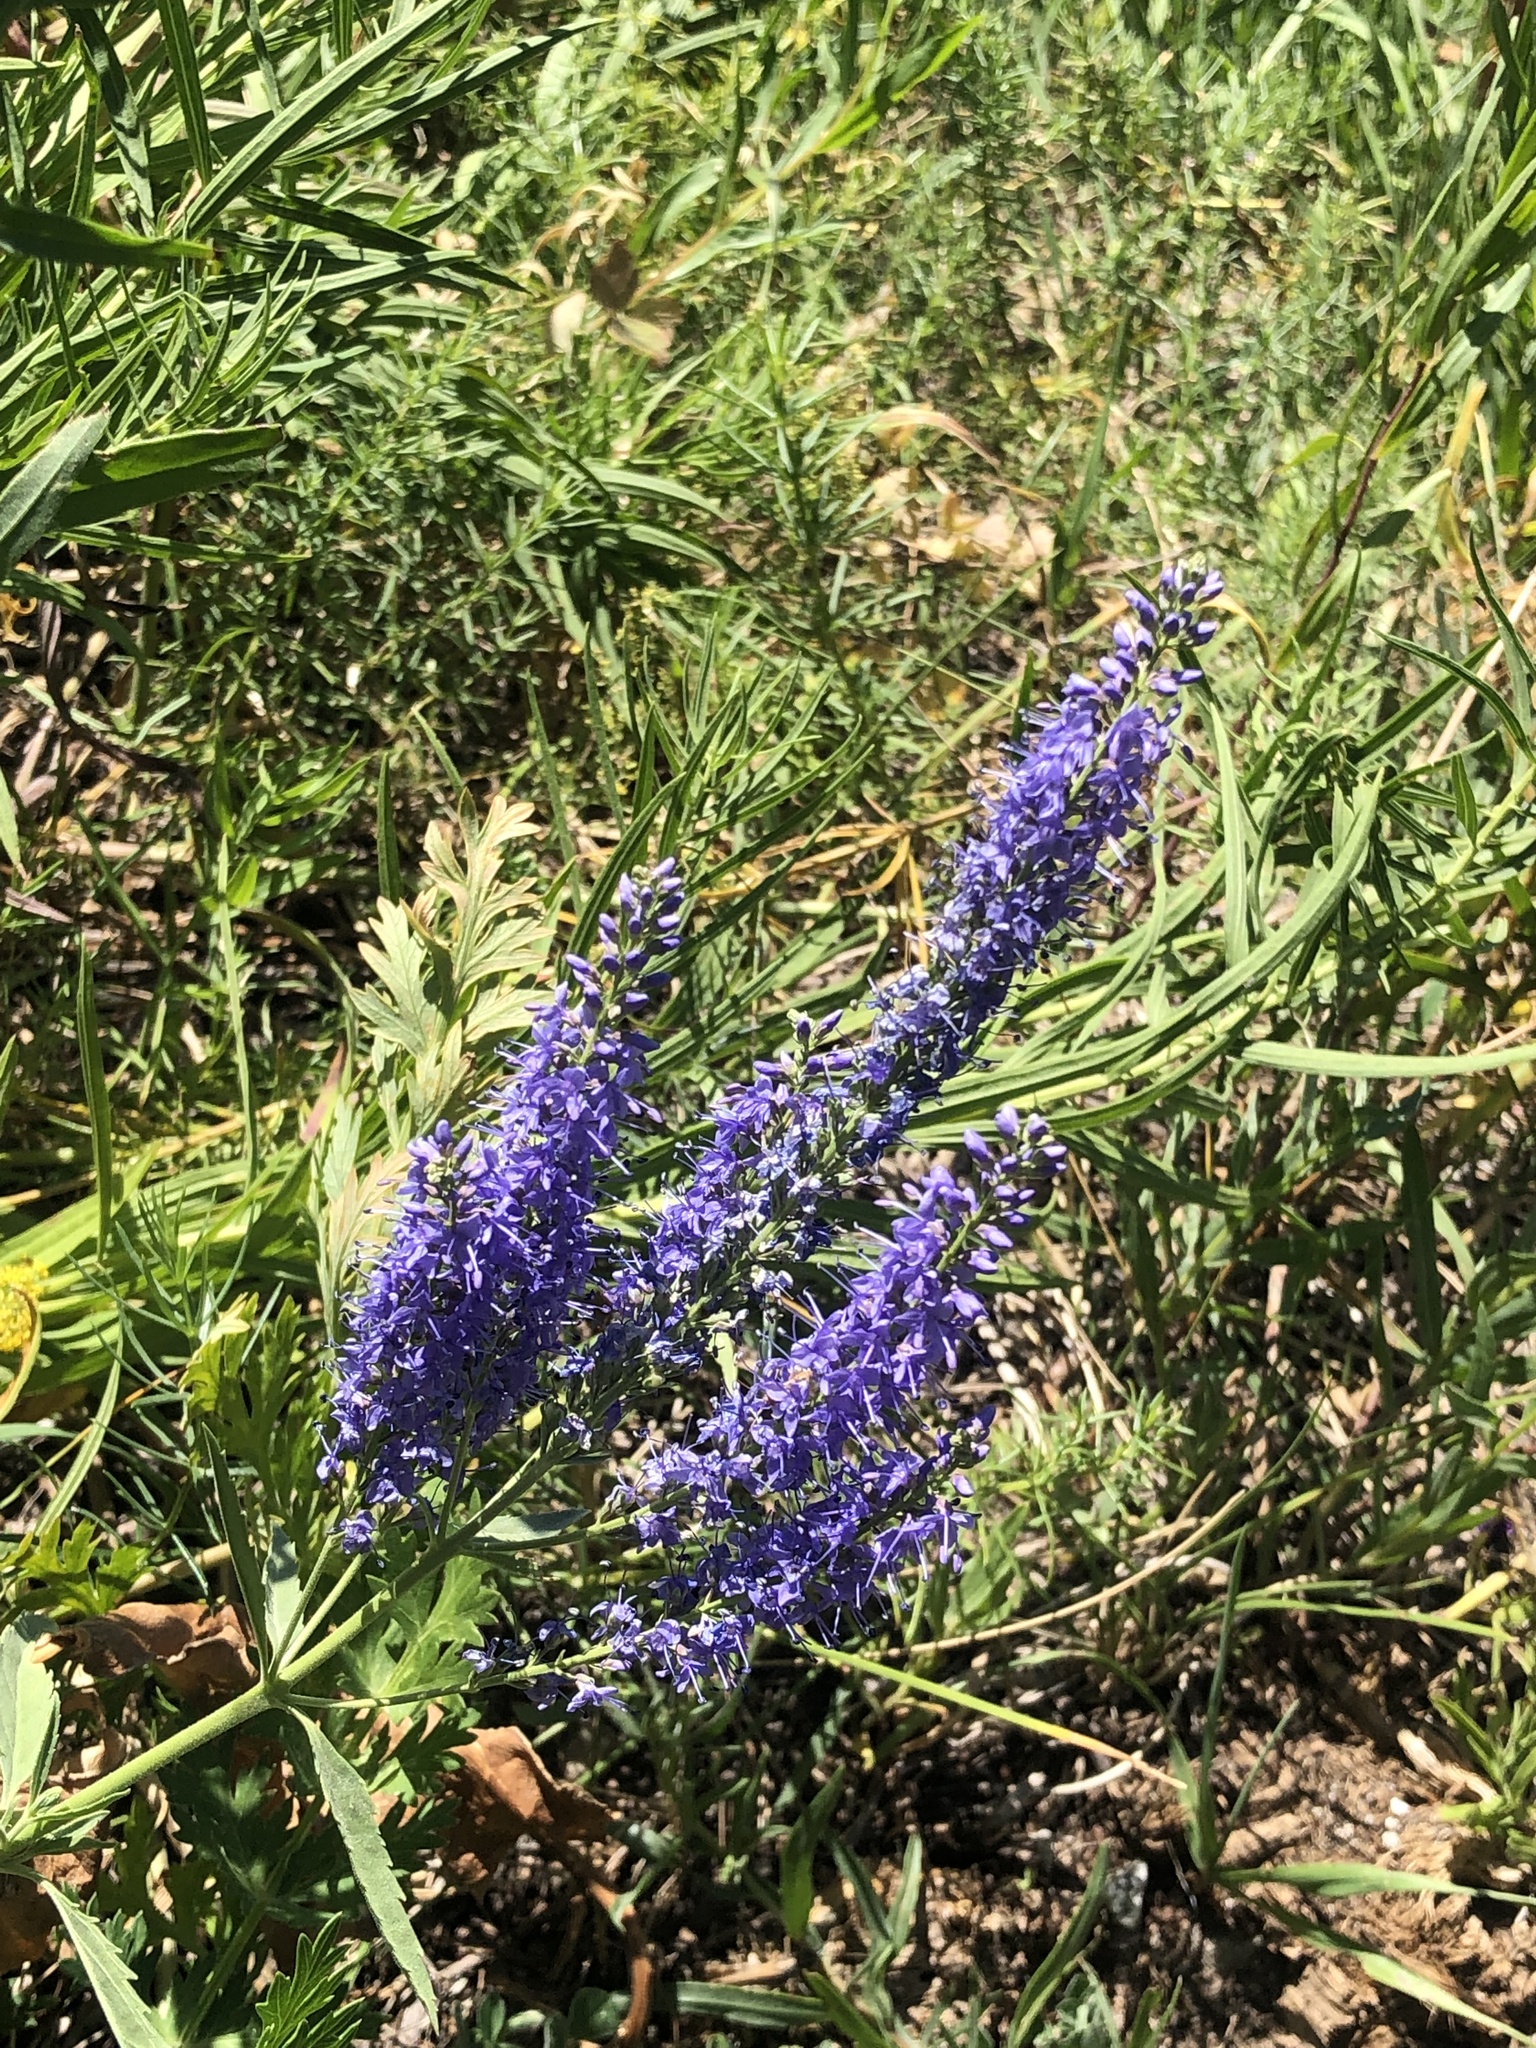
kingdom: Plantae
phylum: Tracheophyta
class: Magnoliopsida
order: Lamiales
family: Plantaginaceae
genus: Veronica
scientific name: Veronica spuria
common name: Bastard speedwell
